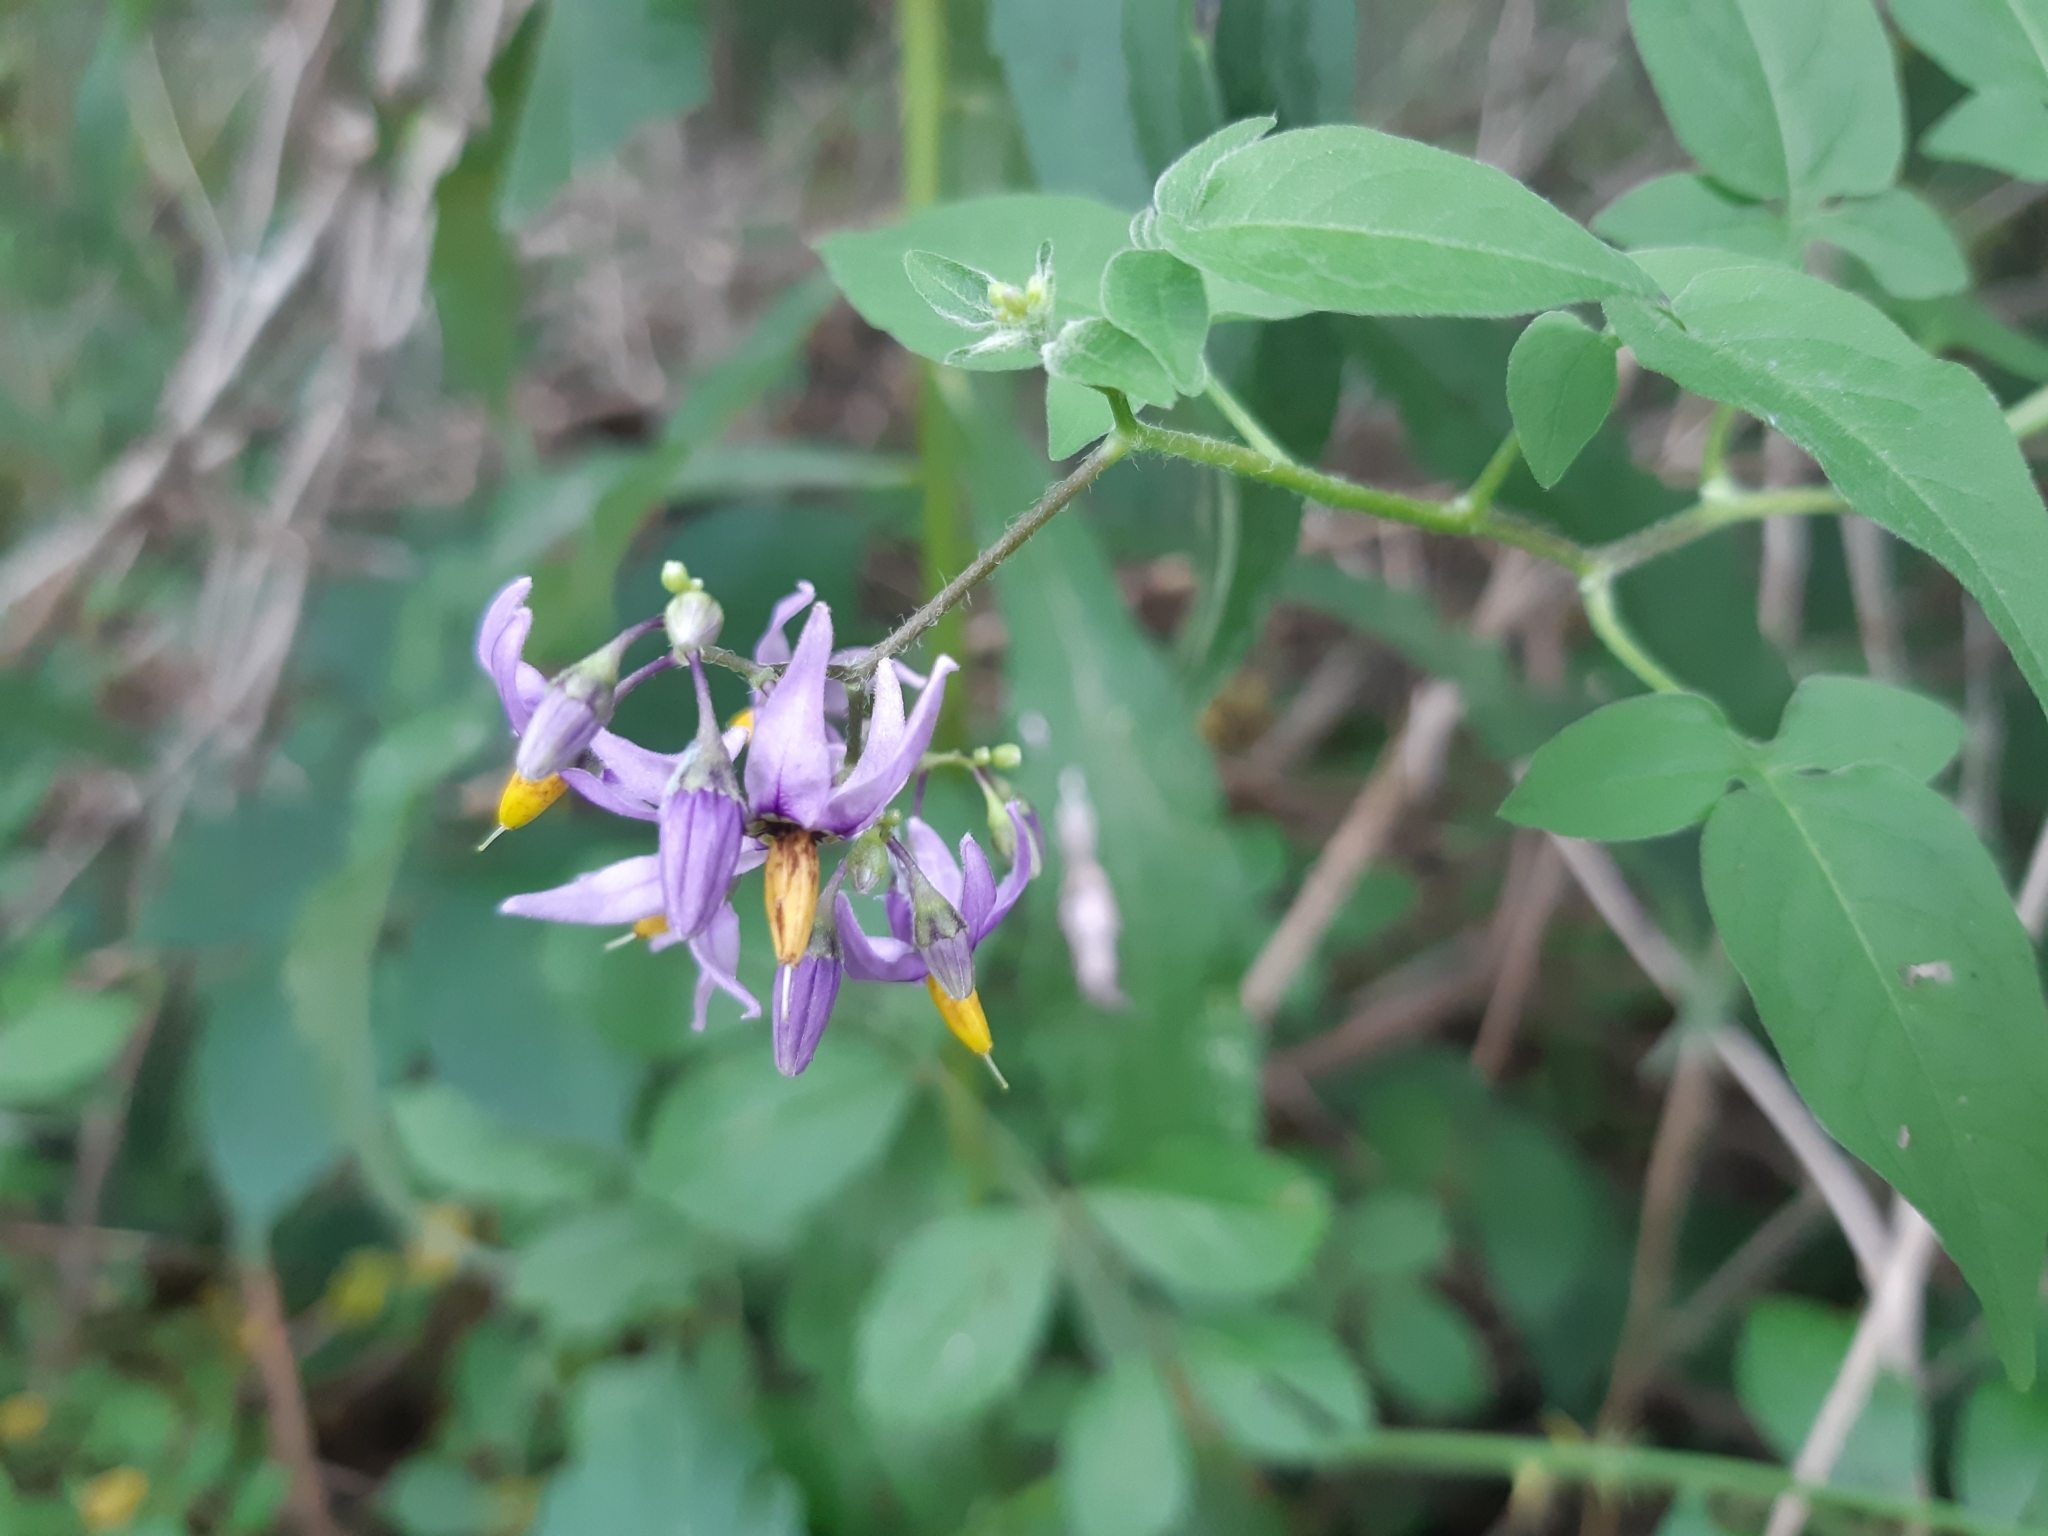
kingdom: Plantae
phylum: Tracheophyta
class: Magnoliopsida
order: Solanales
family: Solanaceae
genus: Solanum
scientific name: Solanum dulcamara
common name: Climbing nightshade
